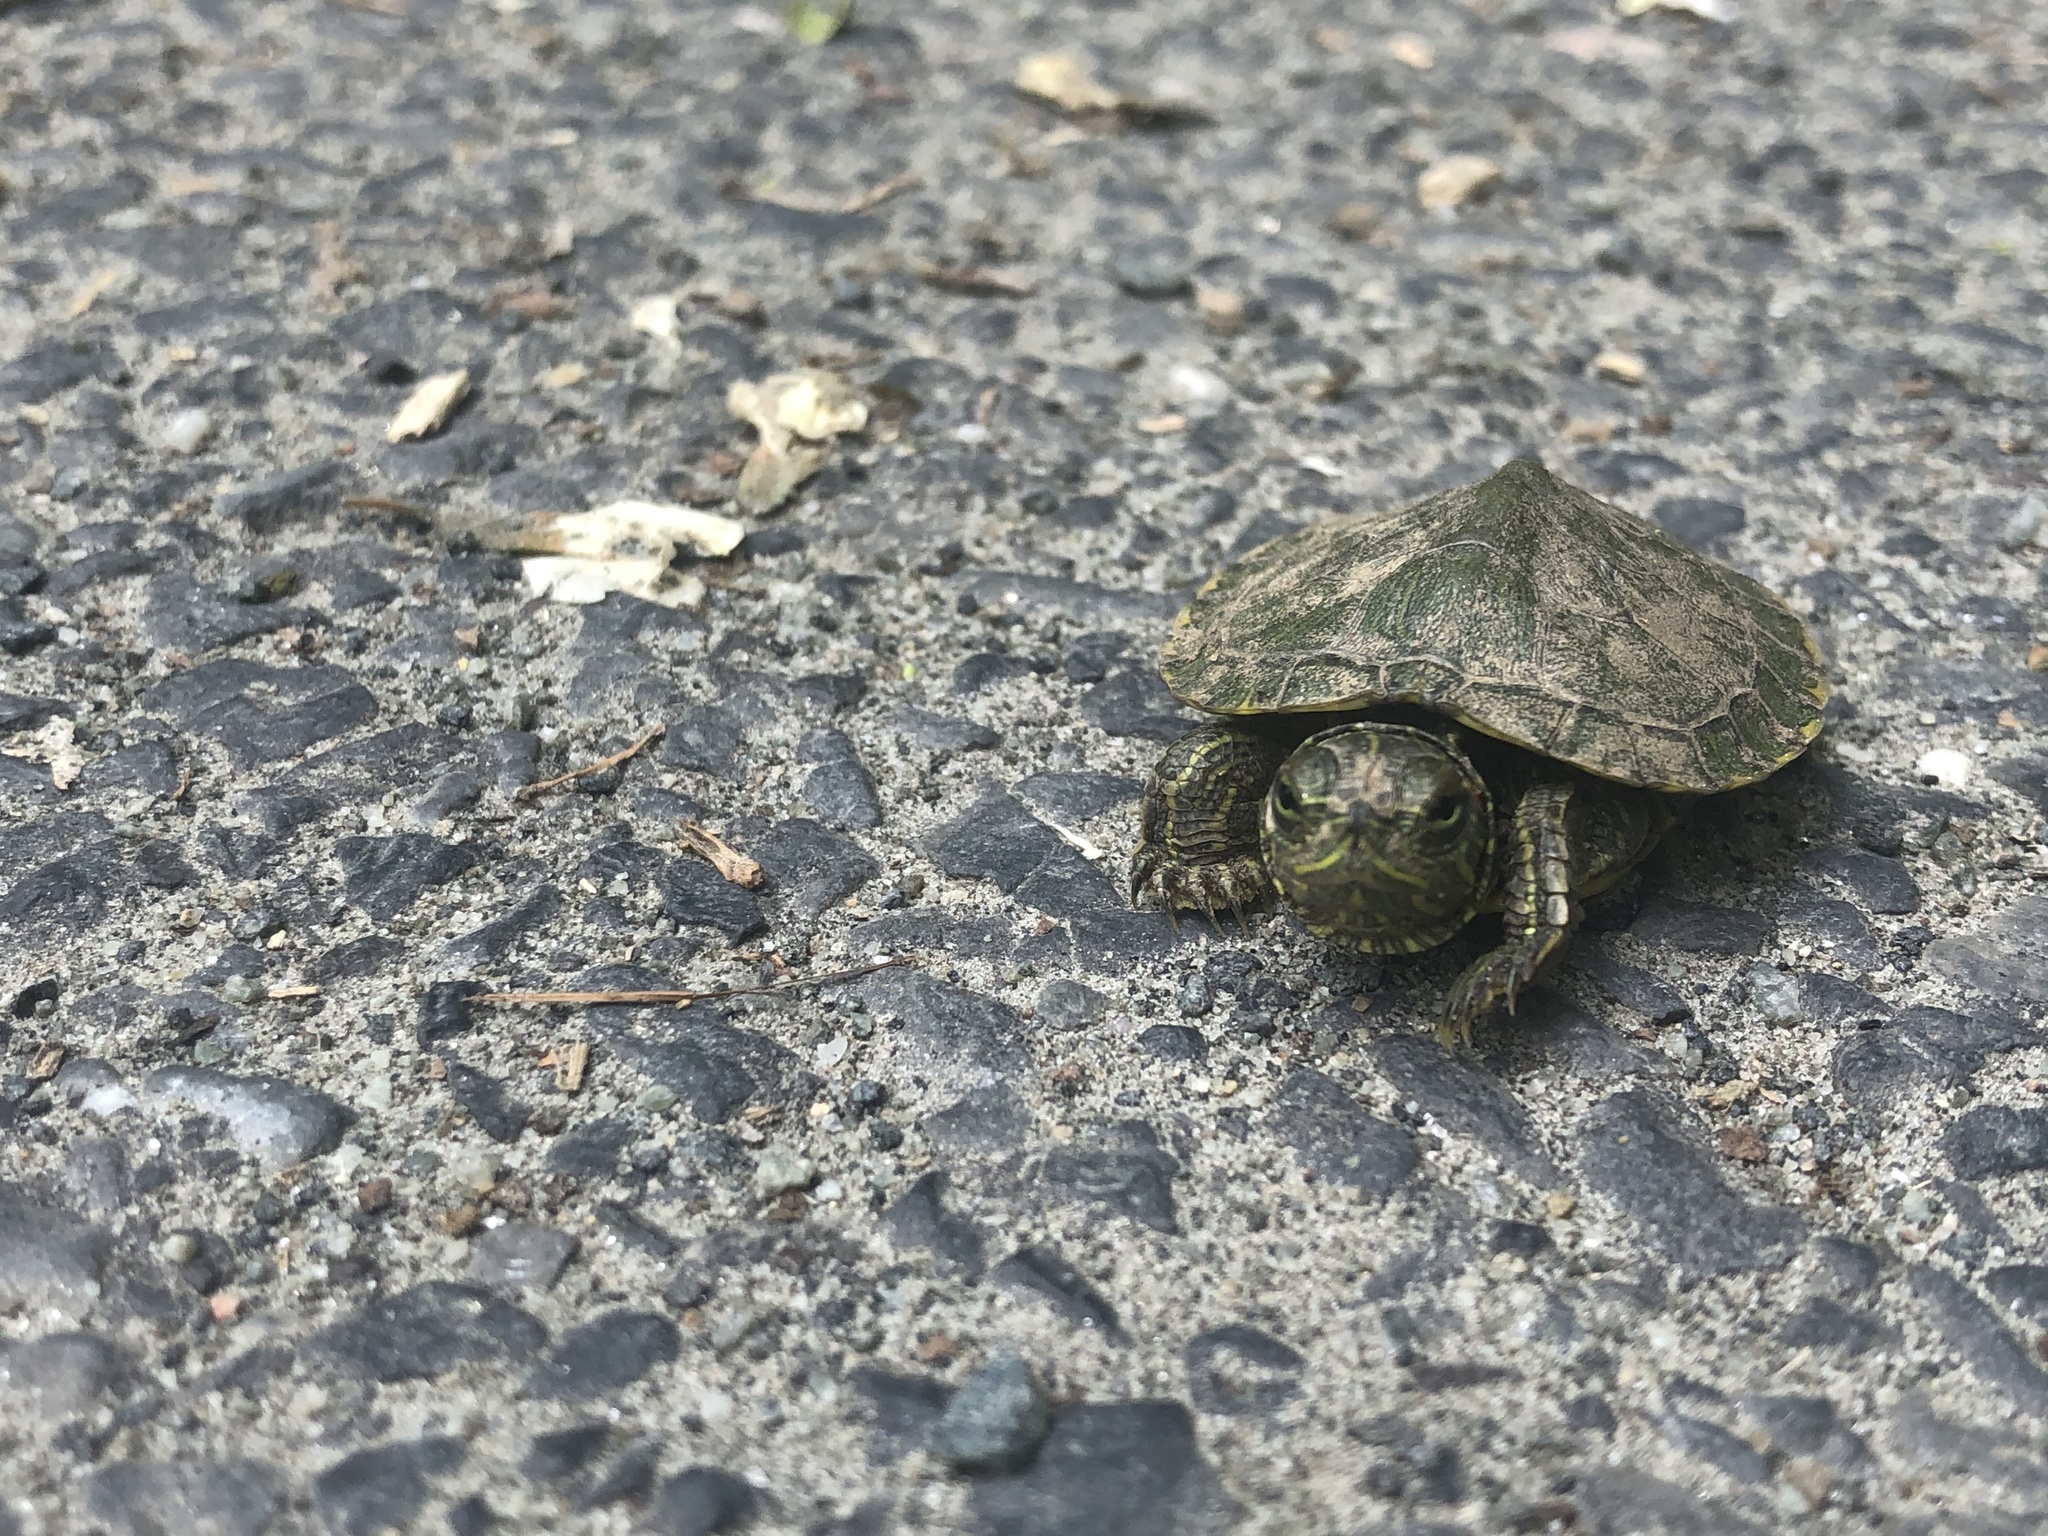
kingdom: Animalia
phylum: Chordata
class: Testudines
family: Emydidae
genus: Trachemys
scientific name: Trachemys scripta
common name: Slider
